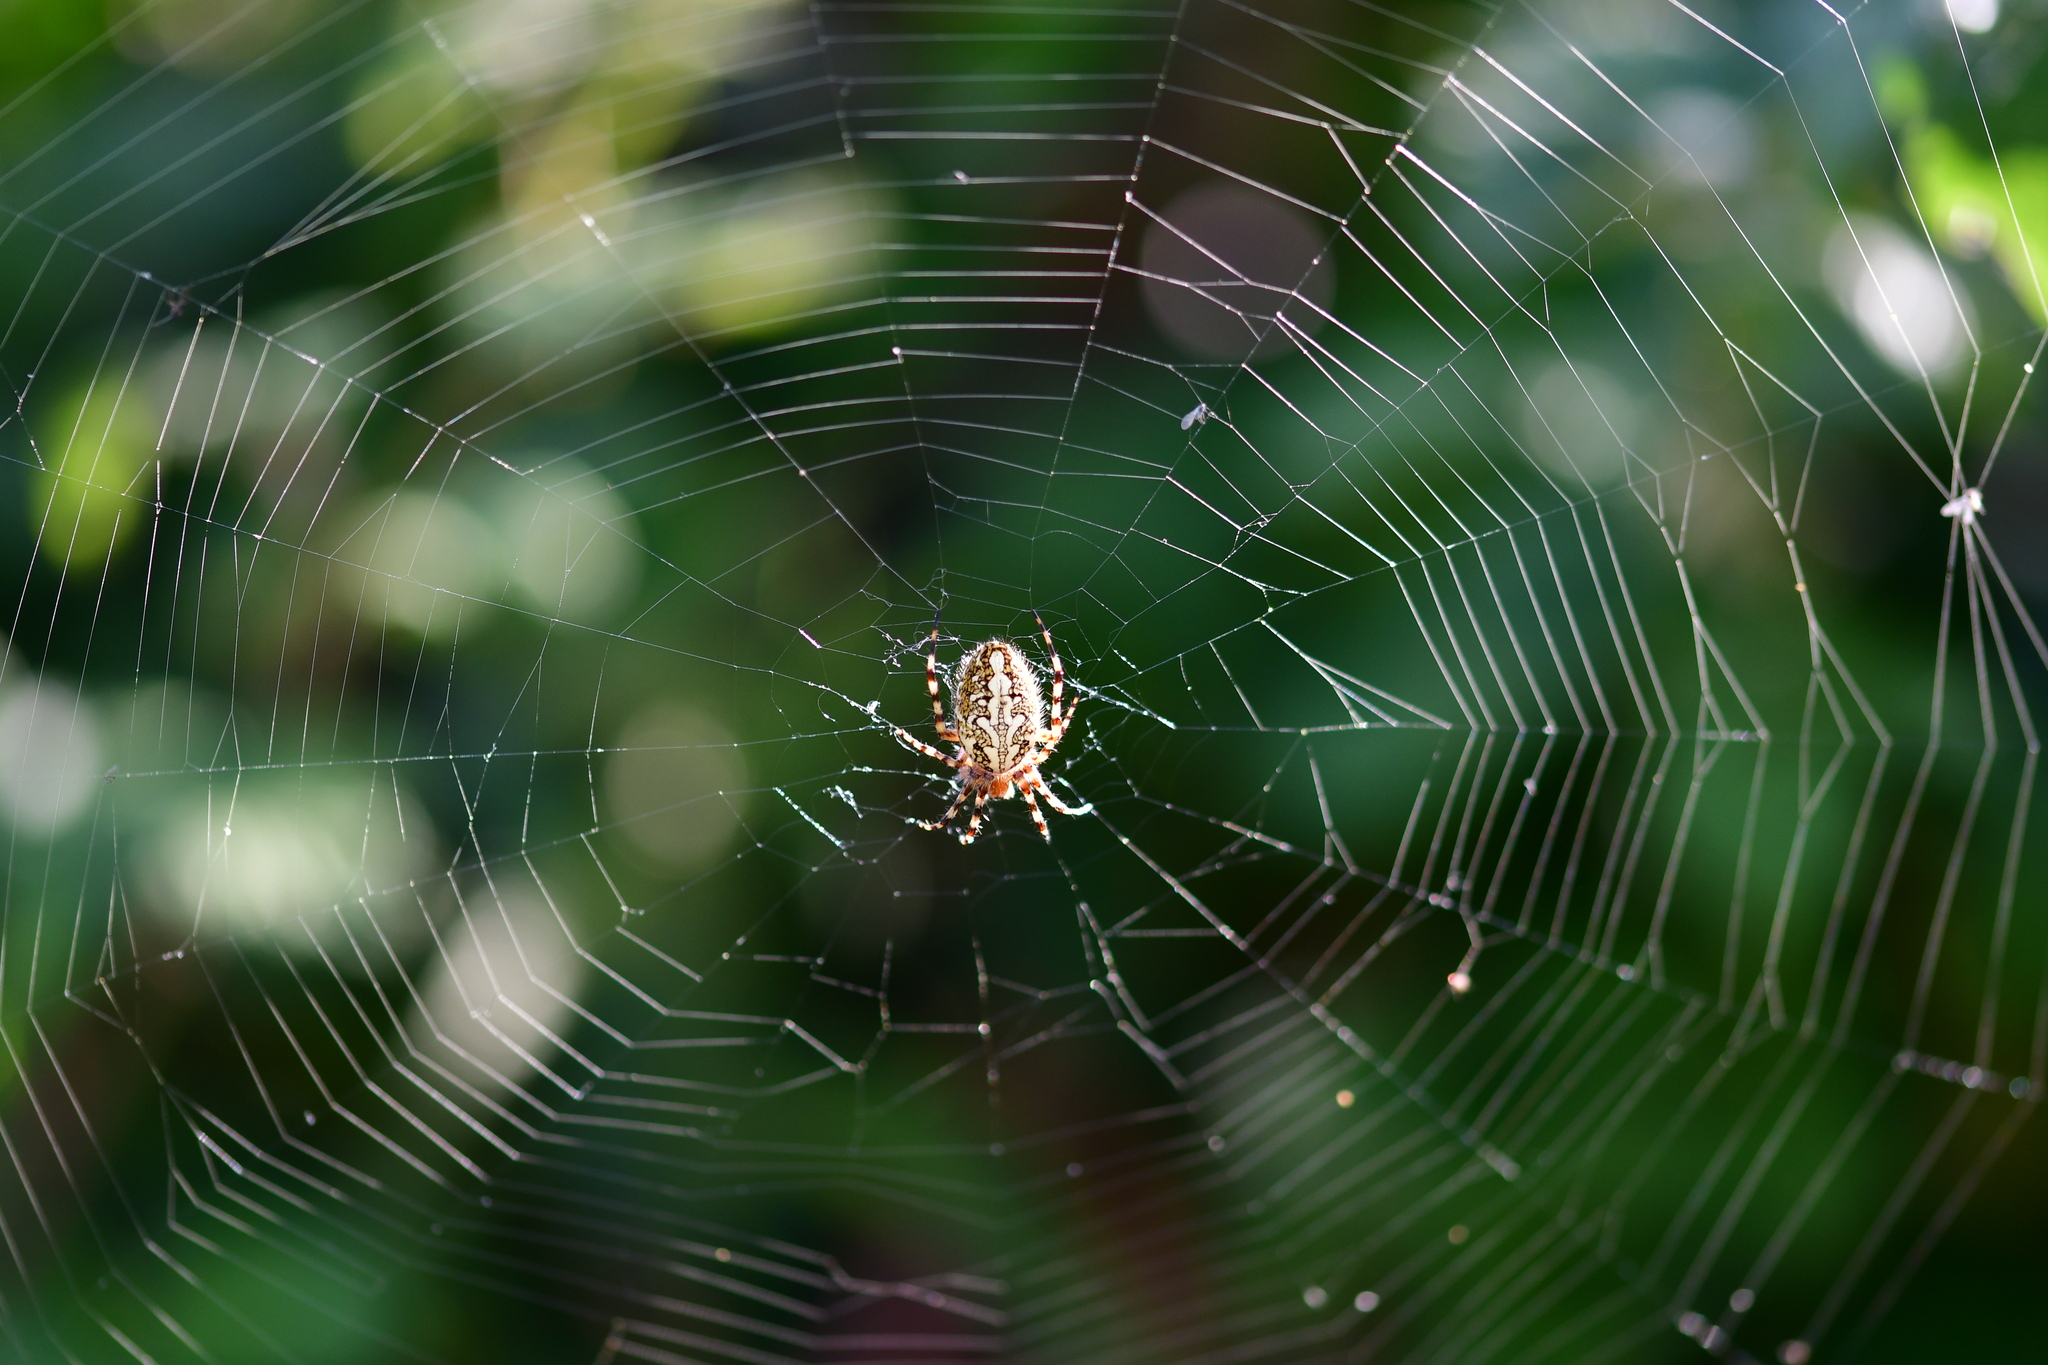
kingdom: Animalia
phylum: Arthropoda
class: Arachnida
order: Araneae
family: Araneidae
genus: Aculepeira
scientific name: Aculepeira ceropegia
